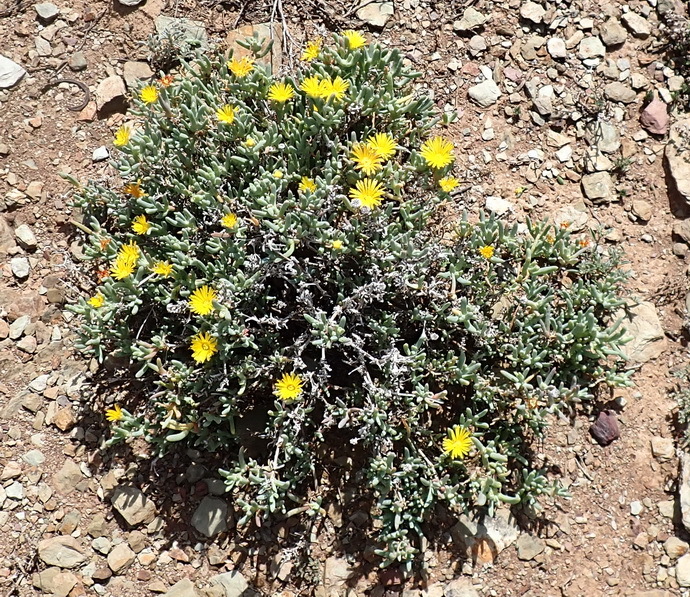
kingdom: Plantae
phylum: Tracheophyta
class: Magnoliopsida
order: Caryophyllales
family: Aizoaceae
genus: Malephora
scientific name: Malephora lutea
